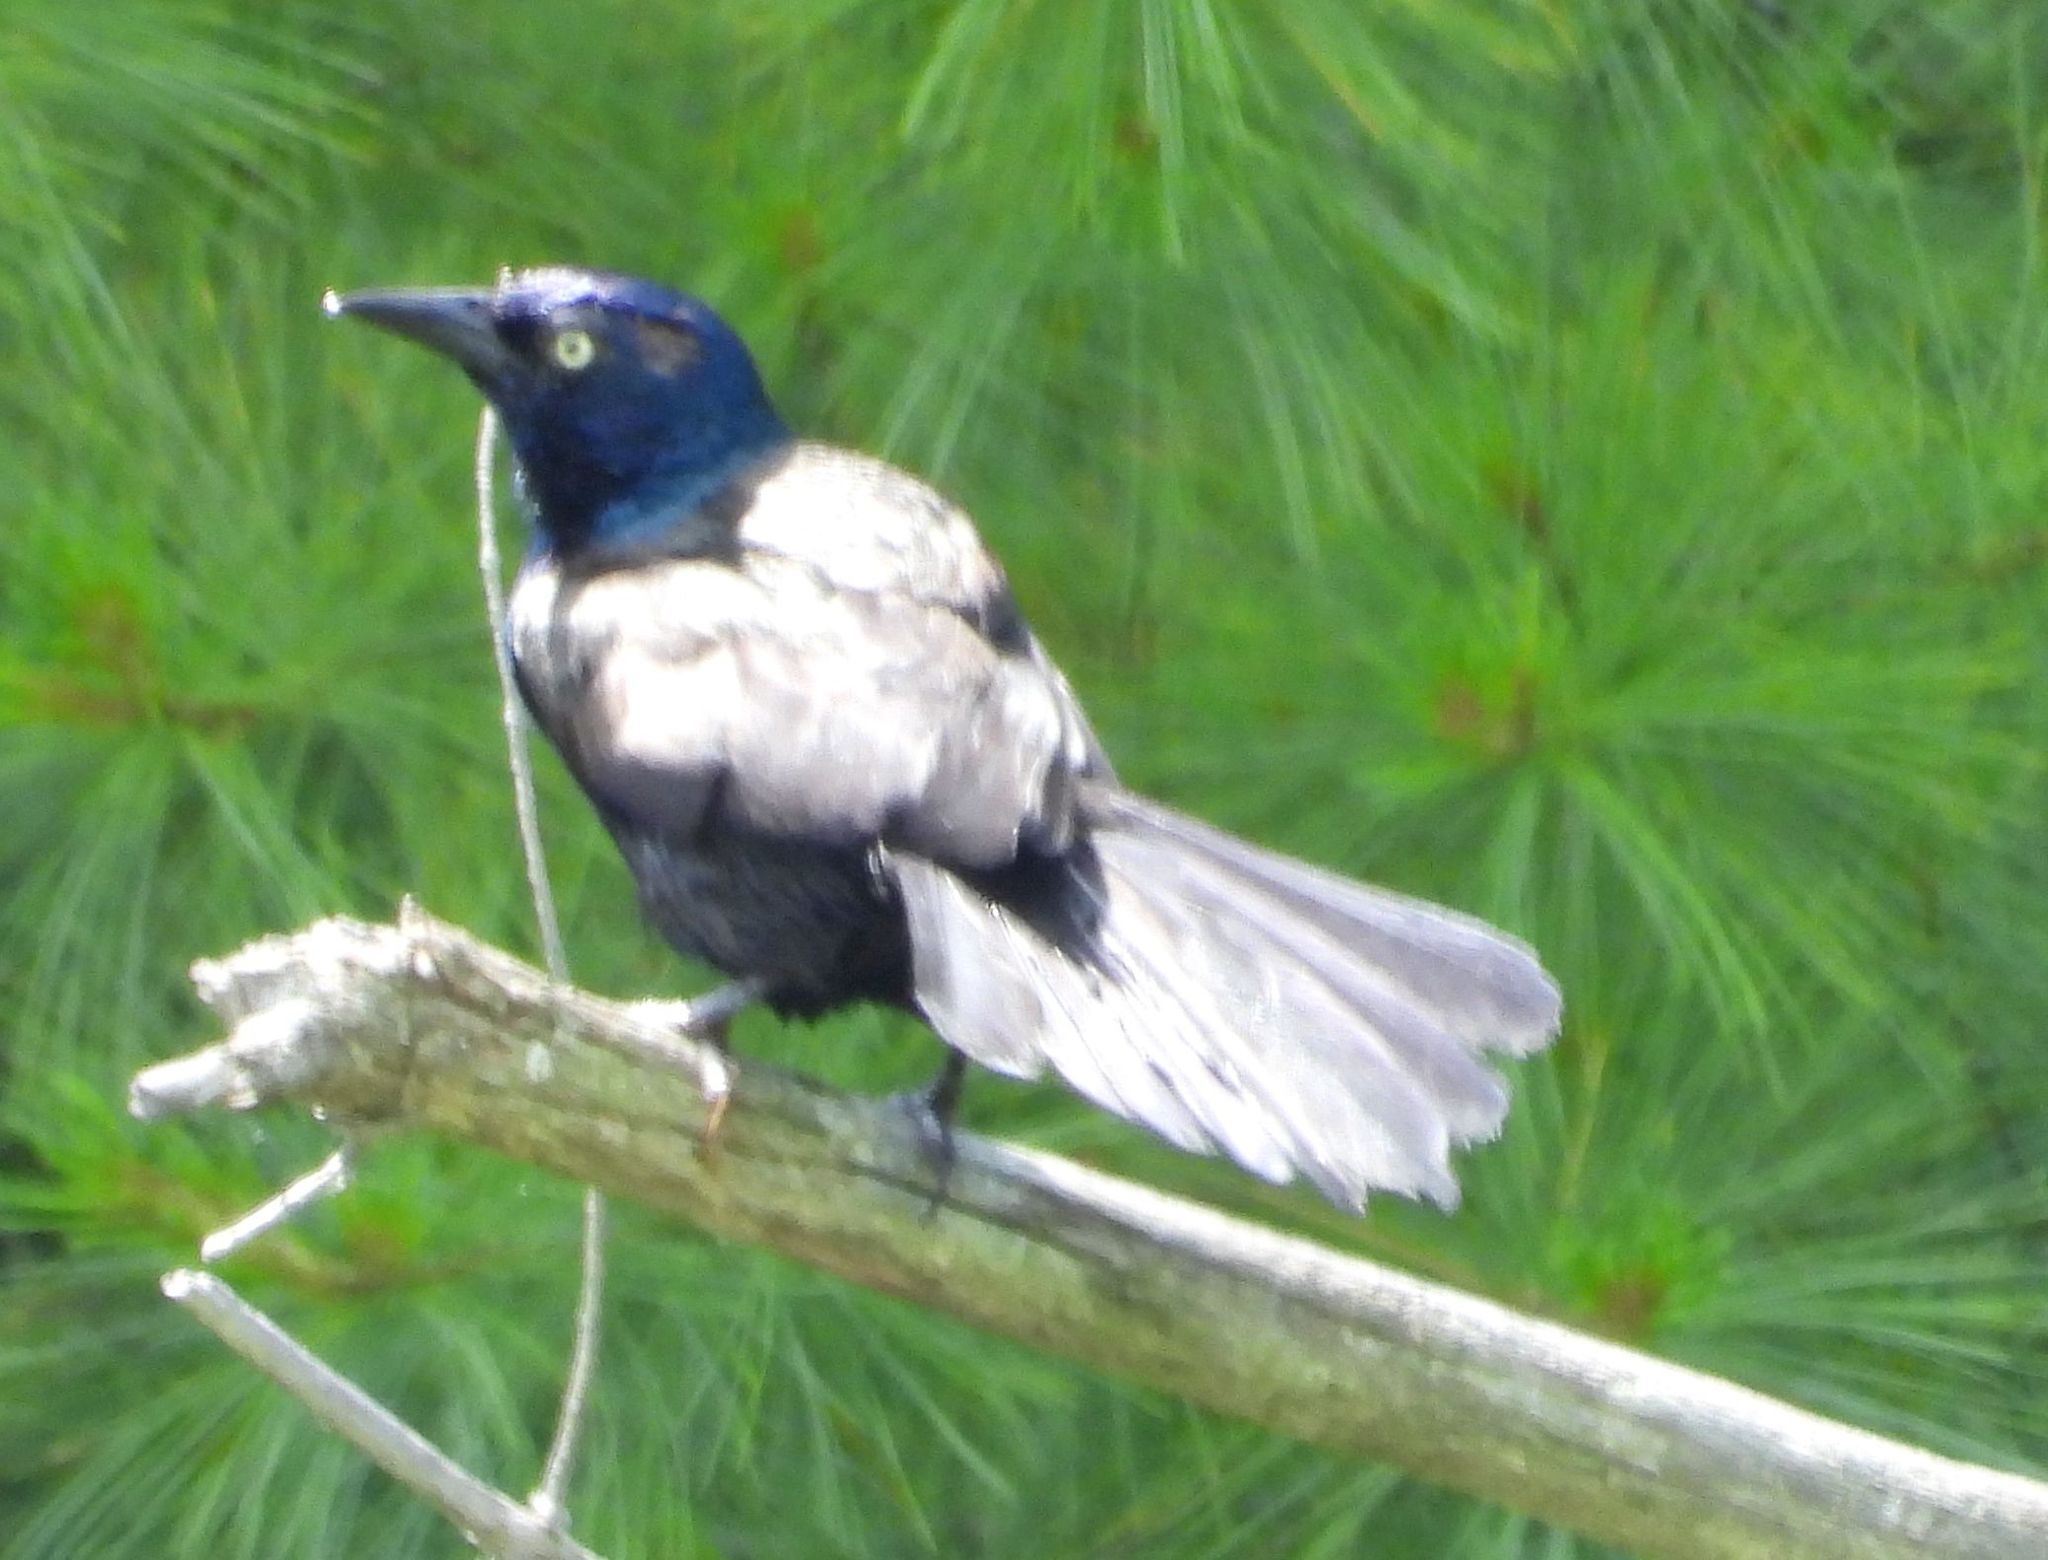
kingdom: Animalia
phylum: Chordata
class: Aves
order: Passeriformes
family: Icteridae
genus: Quiscalus
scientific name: Quiscalus quiscula
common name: Common grackle
